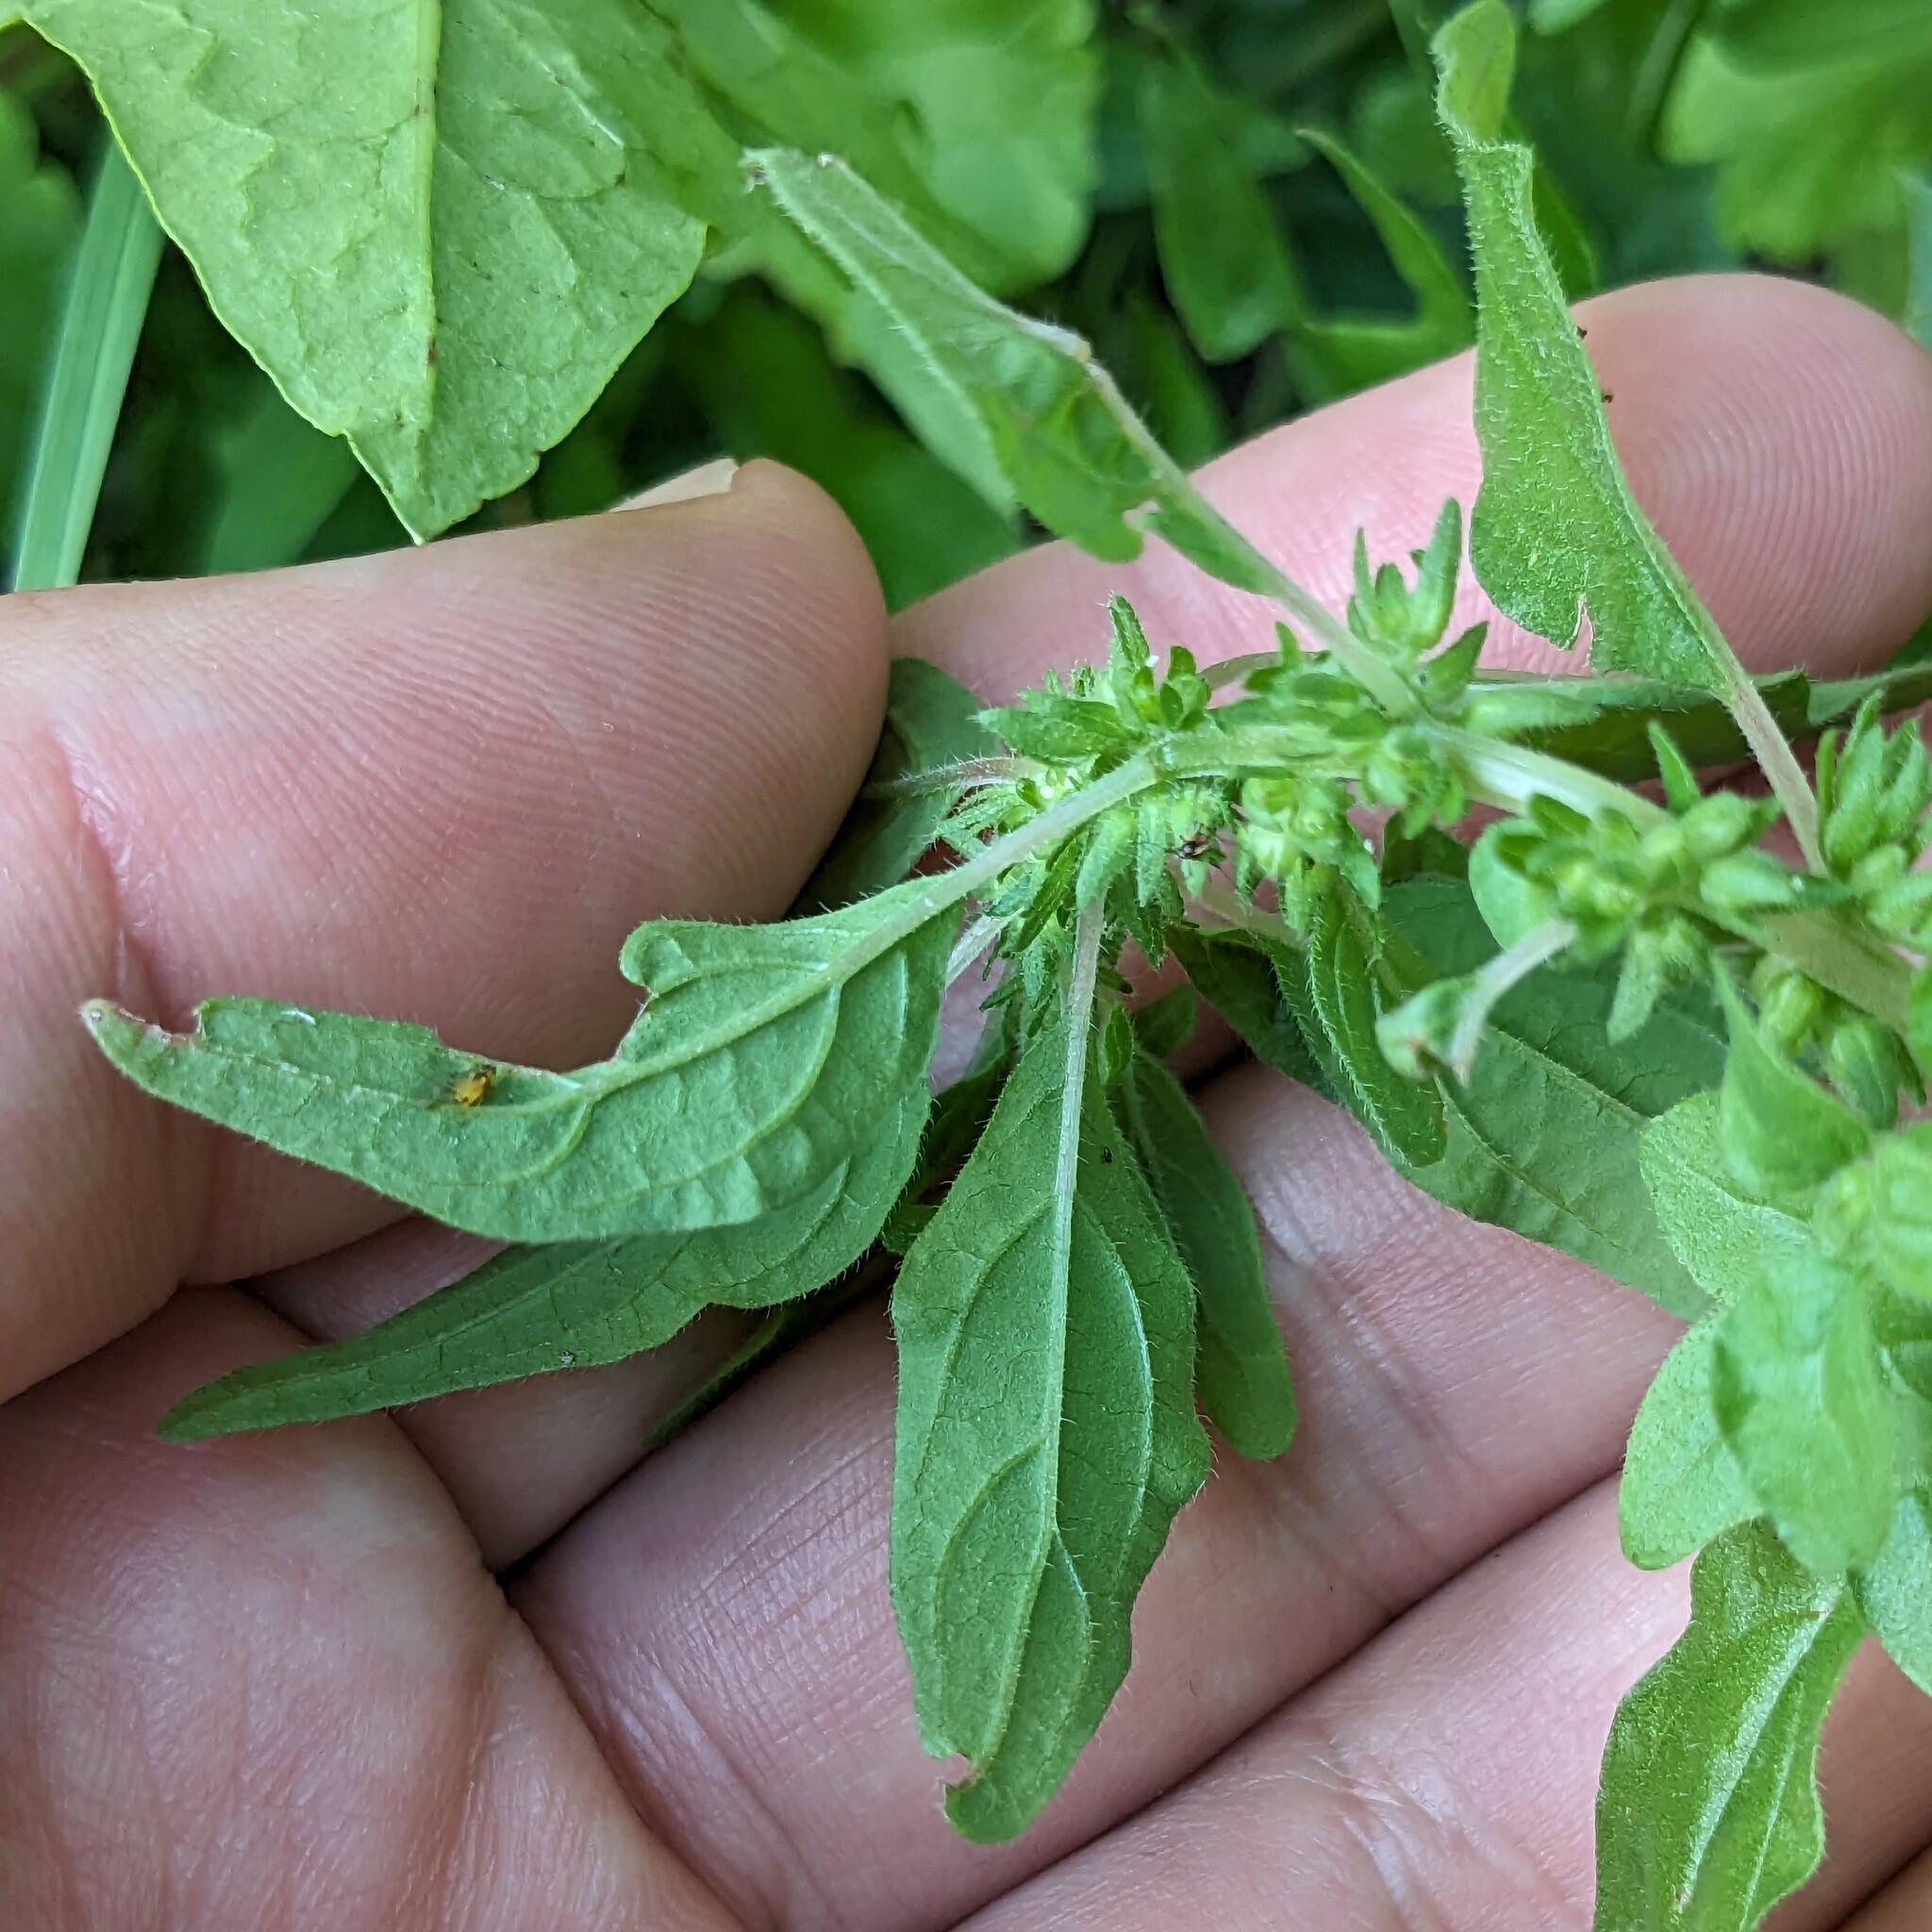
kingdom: Plantae
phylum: Tracheophyta
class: Magnoliopsida
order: Rosales
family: Urticaceae
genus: Parietaria
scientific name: Parietaria pensylvanica
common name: Pennsylvania pellitory
